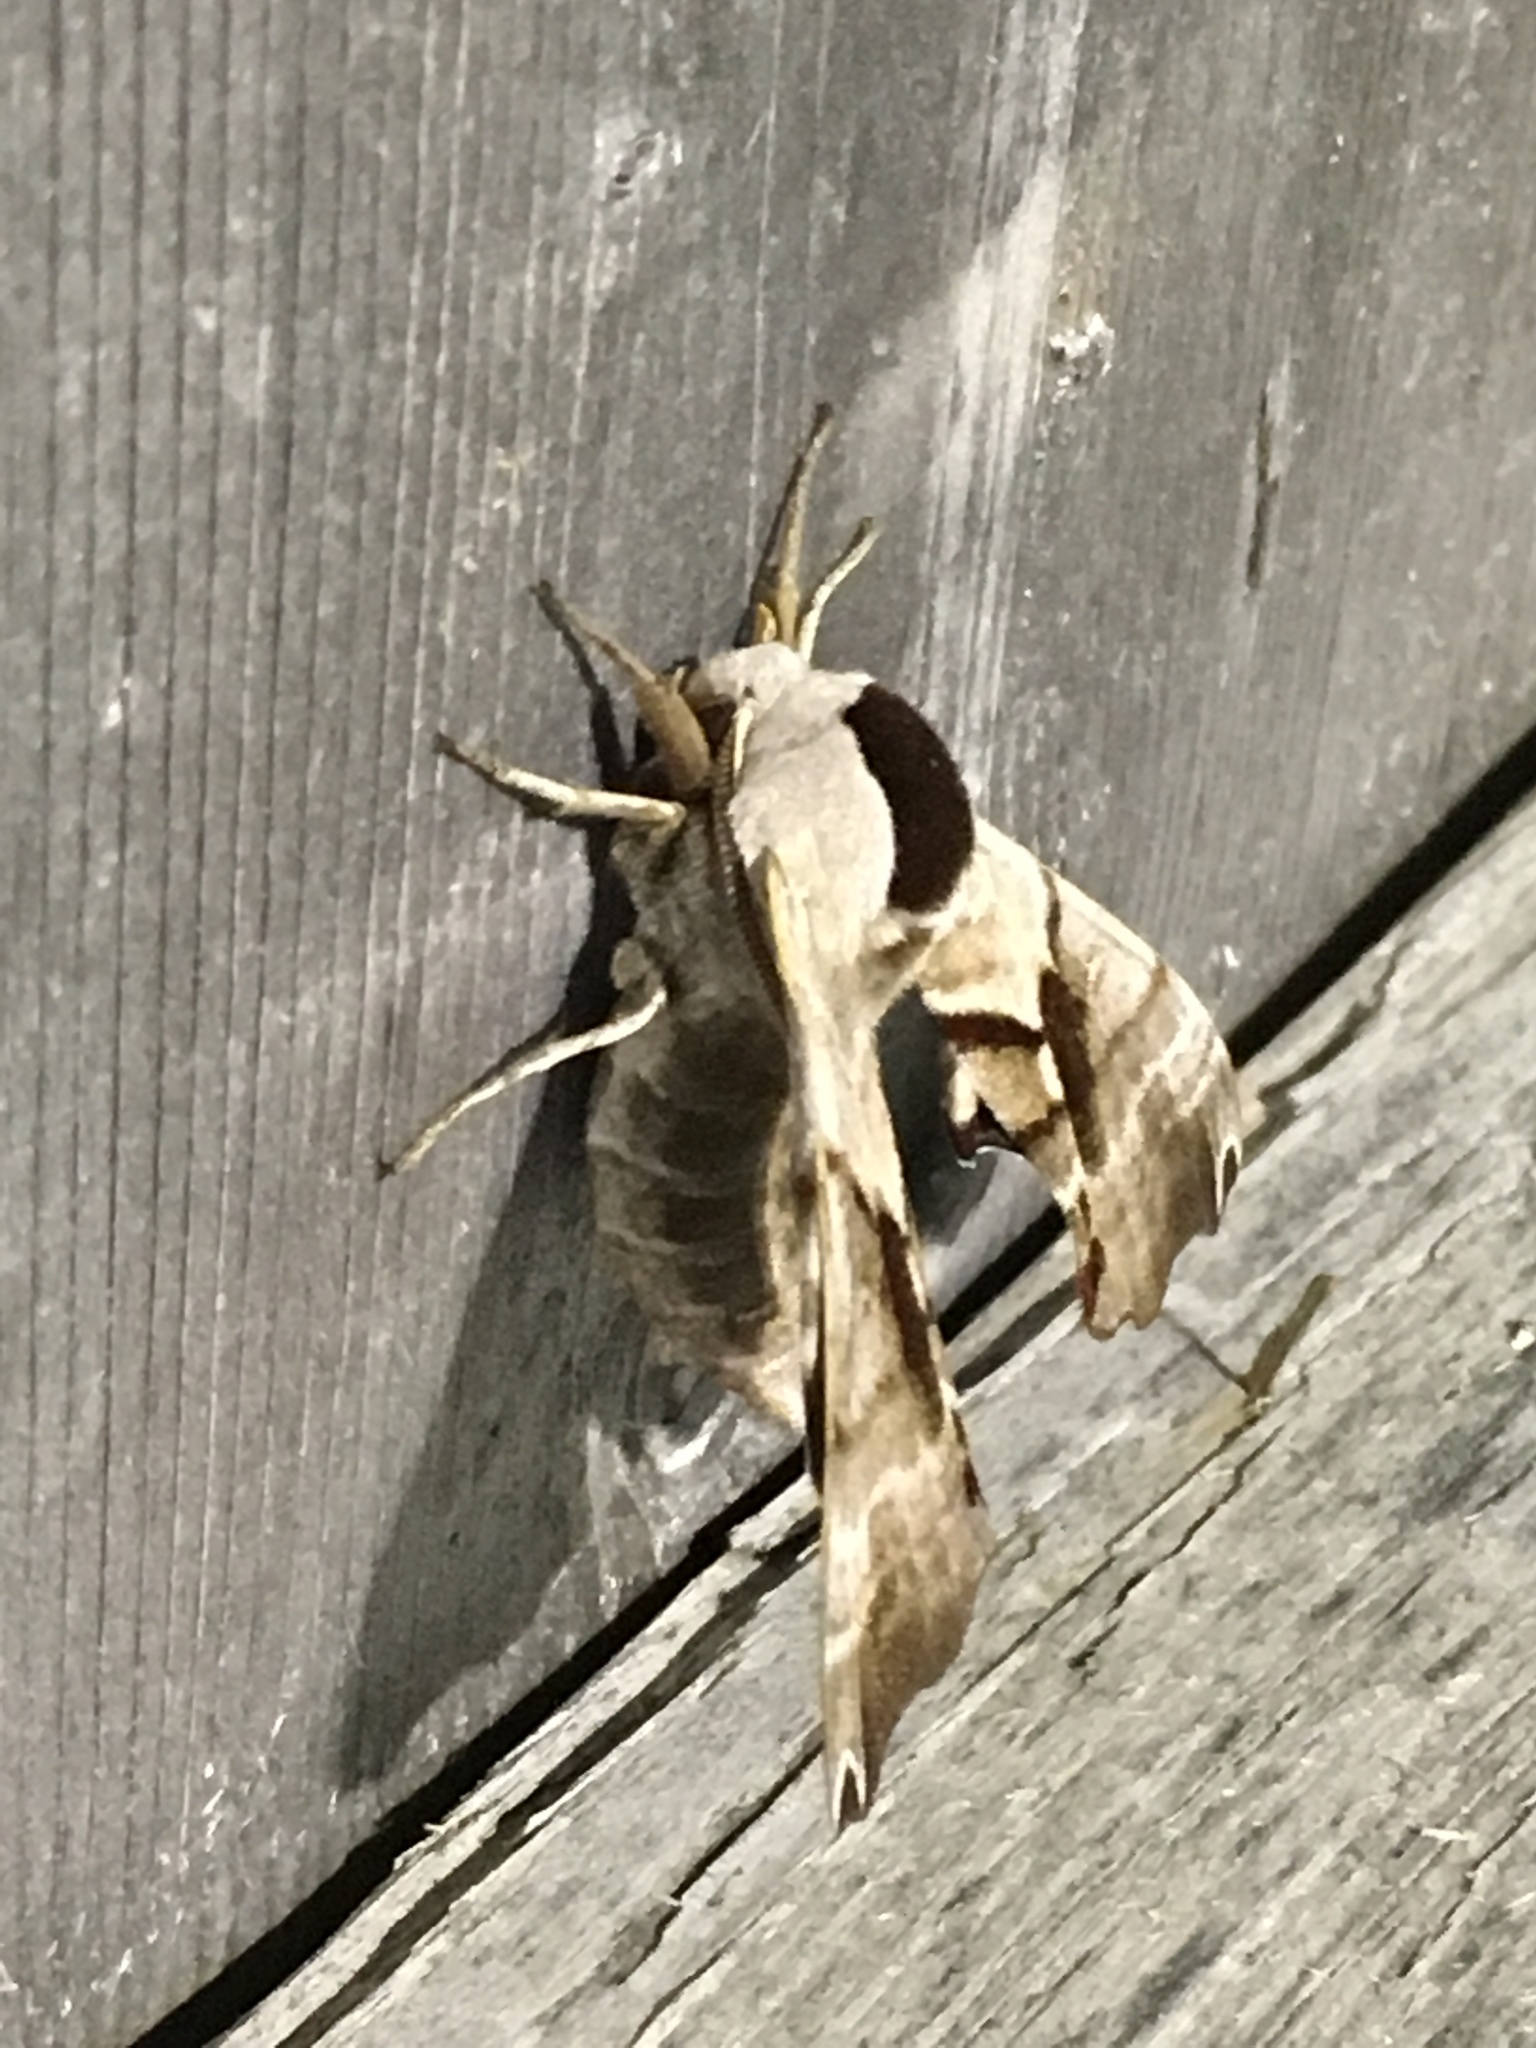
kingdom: Animalia
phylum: Arthropoda
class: Insecta
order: Lepidoptera
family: Sphingidae
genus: Smerinthus
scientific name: Smerinthus jamaicensis
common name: Twin spotted sphinx
